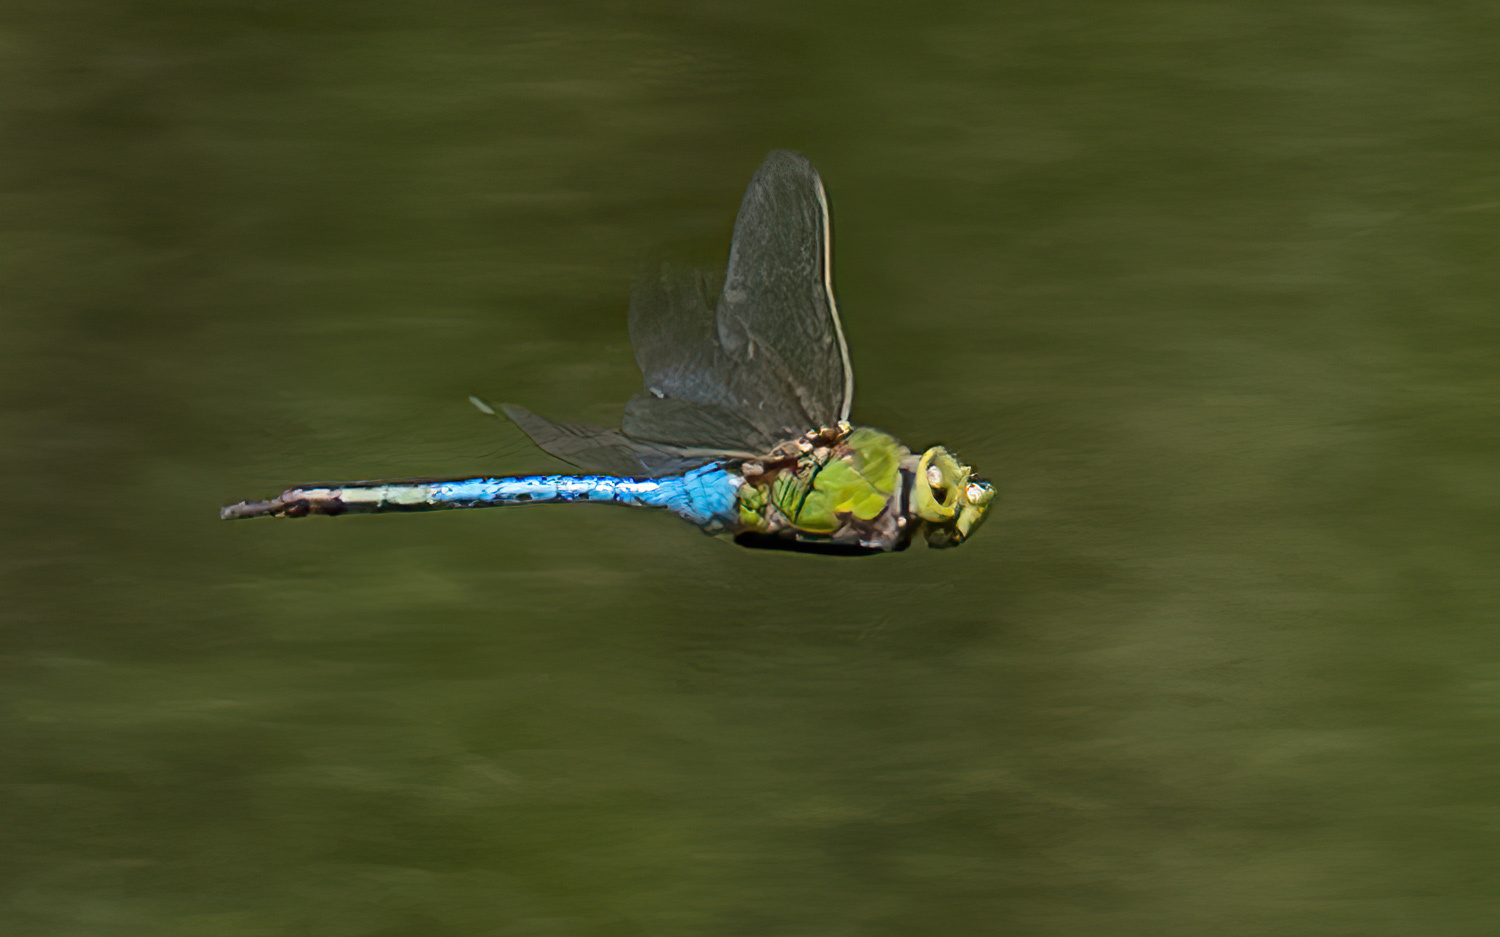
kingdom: Animalia
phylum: Arthropoda
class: Insecta
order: Odonata
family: Aeshnidae
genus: Anax
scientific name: Anax junius
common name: Common green darner
